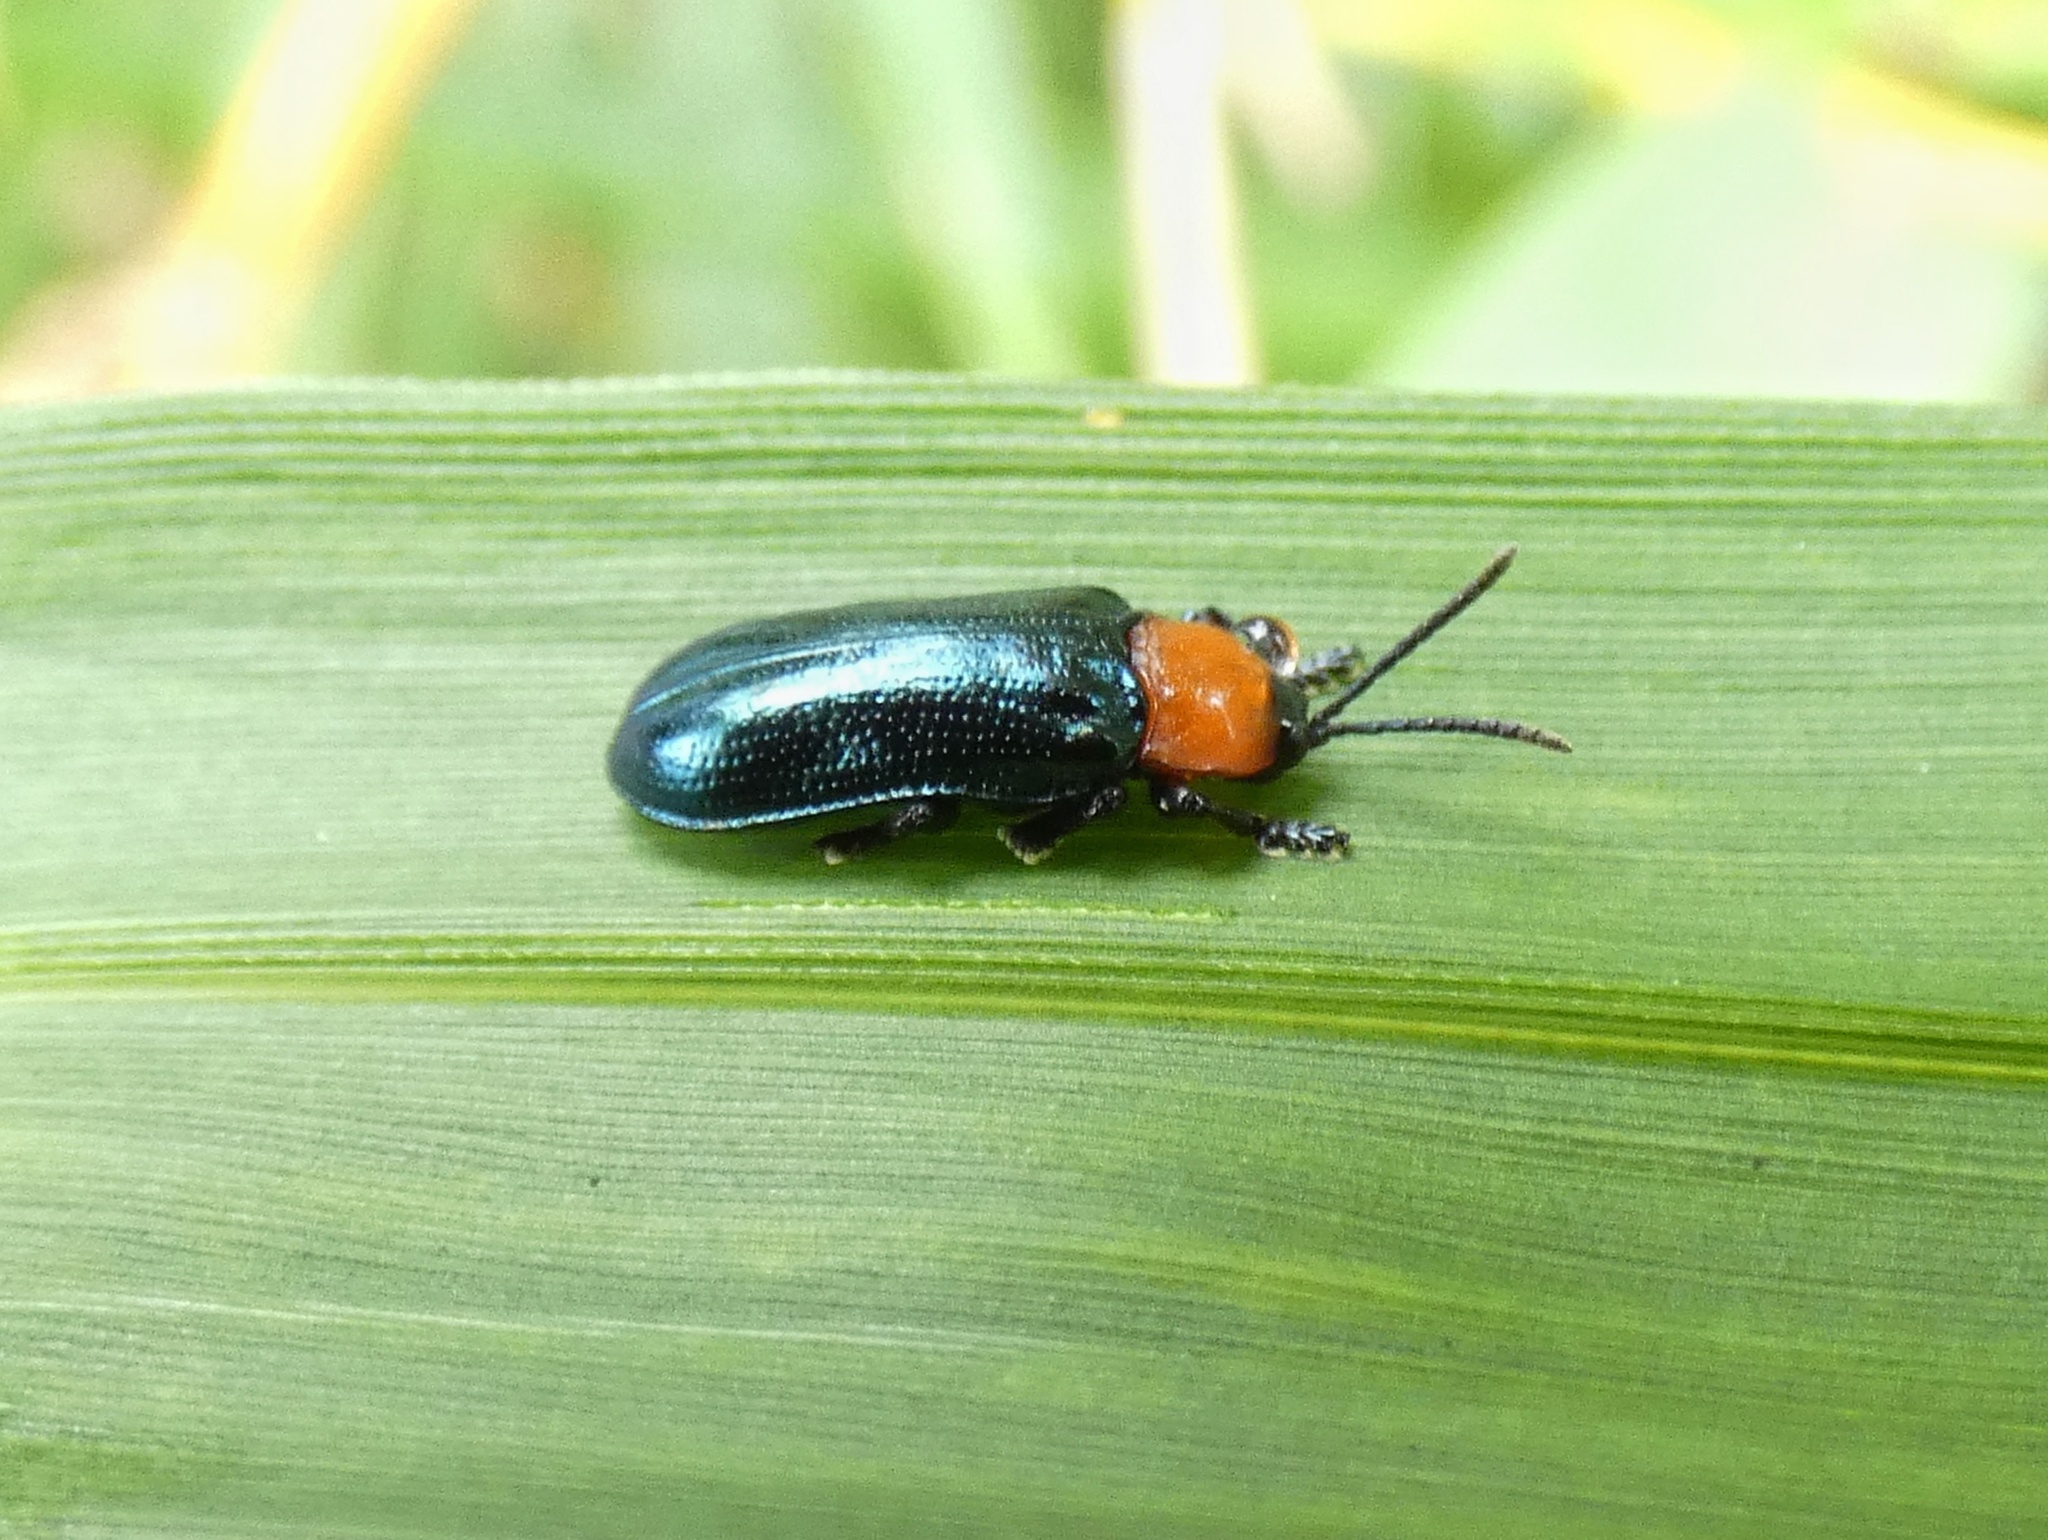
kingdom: Animalia
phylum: Arthropoda
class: Insecta
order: Coleoptera
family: Chrysomelidae
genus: Oediopalpa
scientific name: Oediopalpa guerinii
